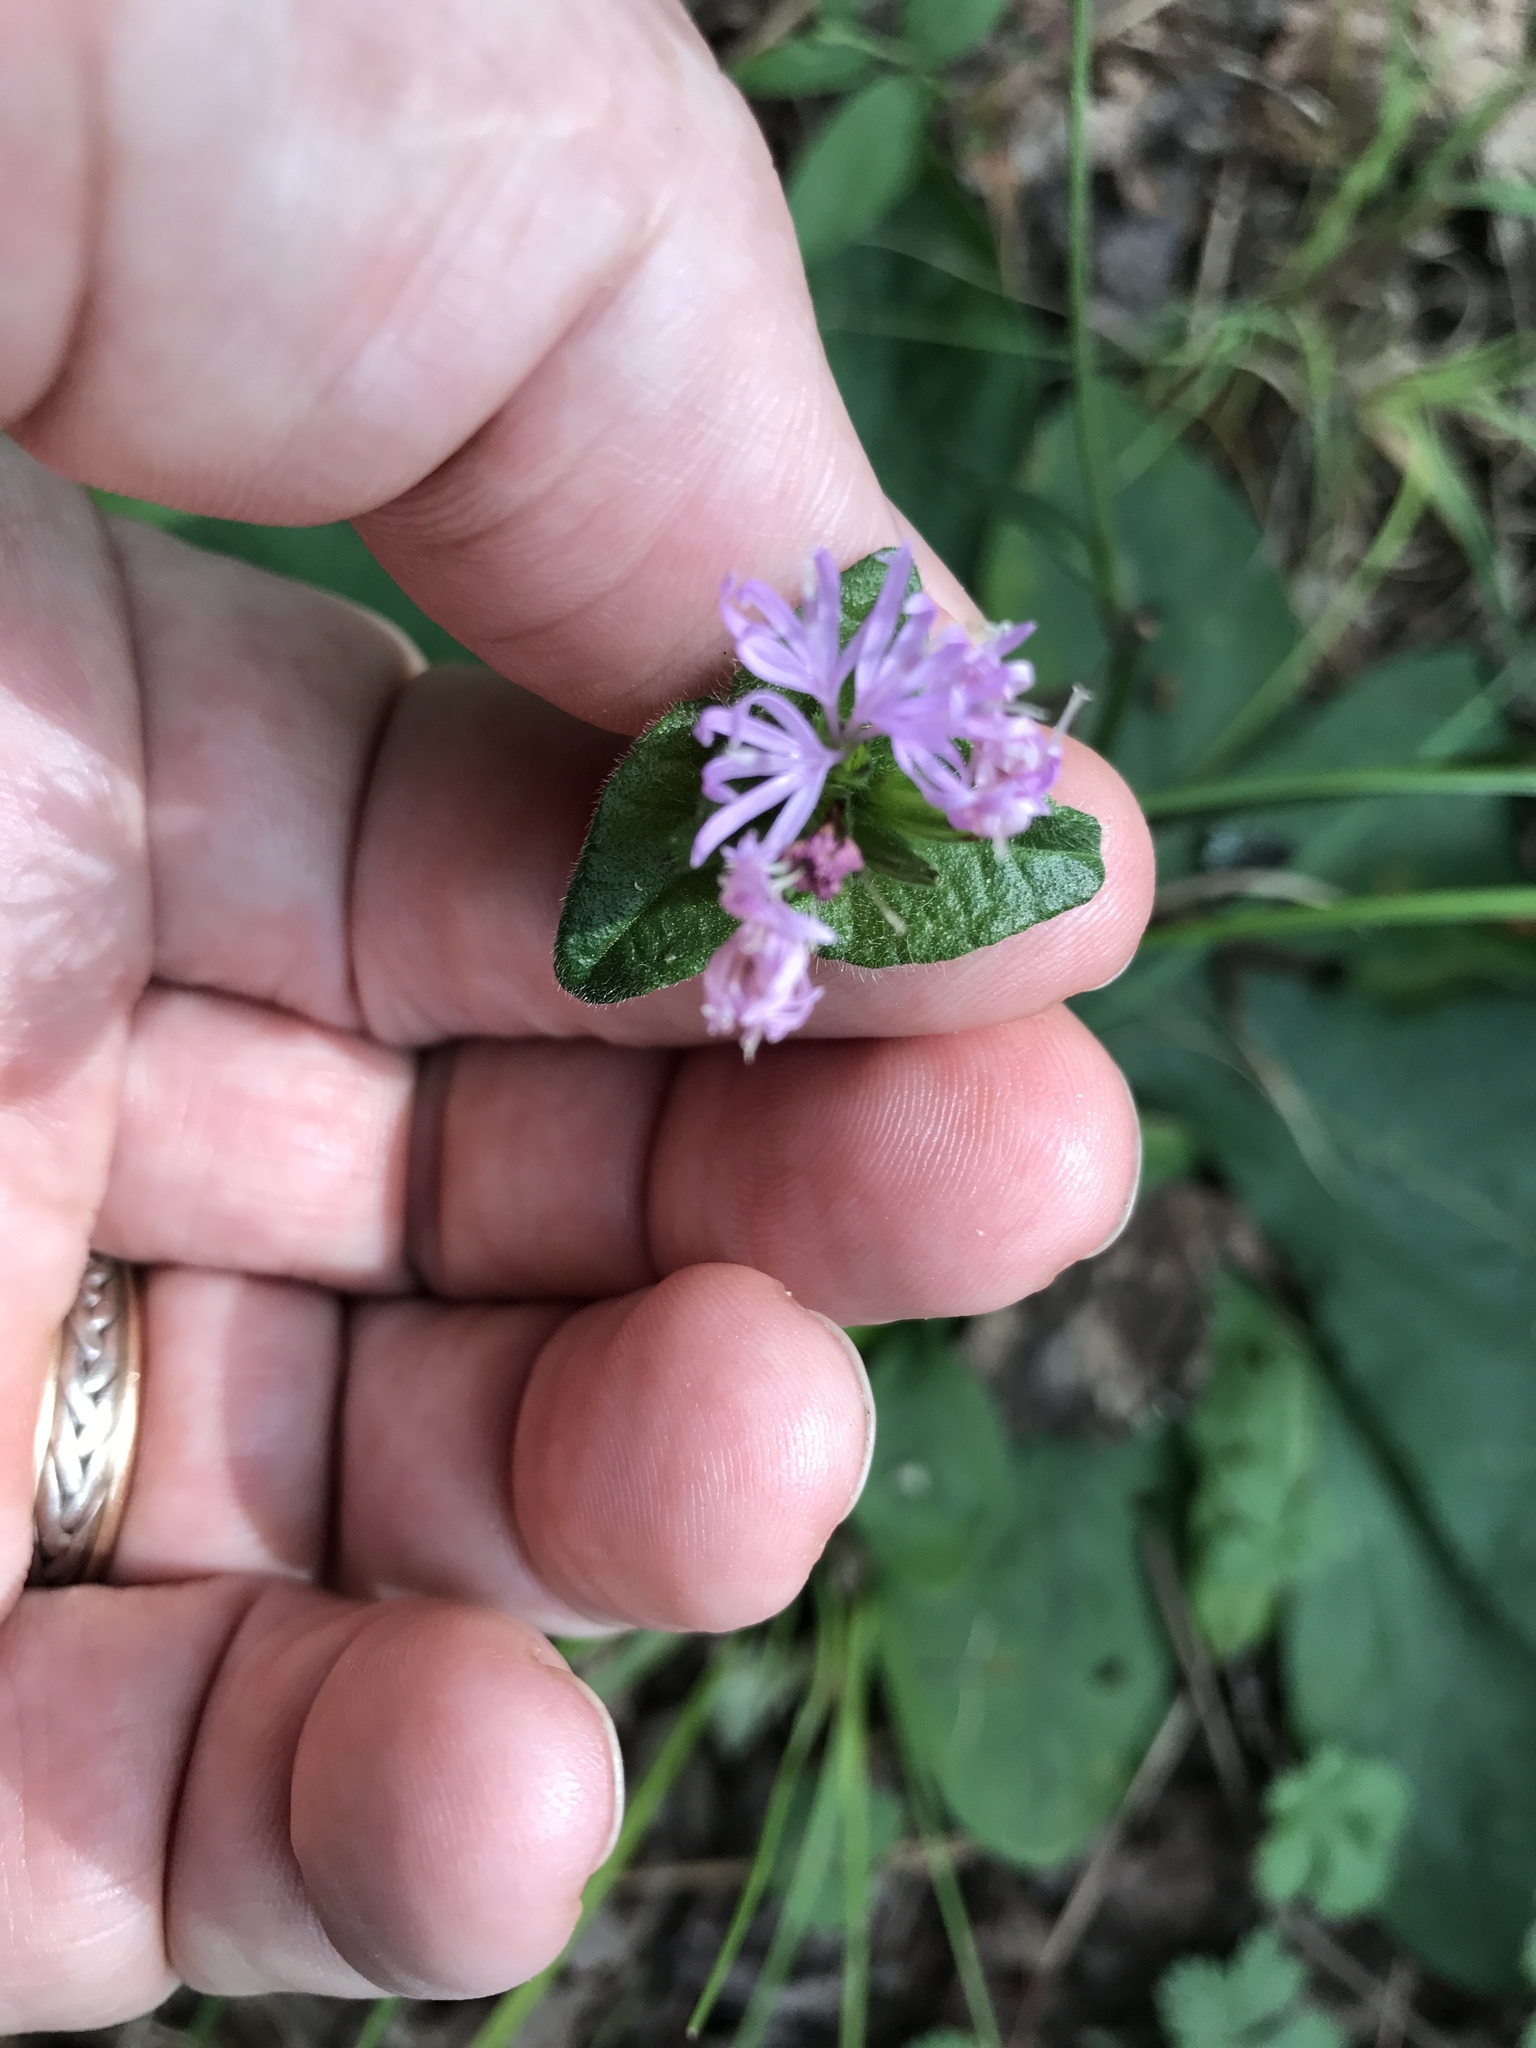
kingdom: Plantae
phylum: Tracheophyta
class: Magnoliopsida
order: Asterales
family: Asteraceae
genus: Elephantopus
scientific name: Elephantopus tomentosus
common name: Tobacco-weed
